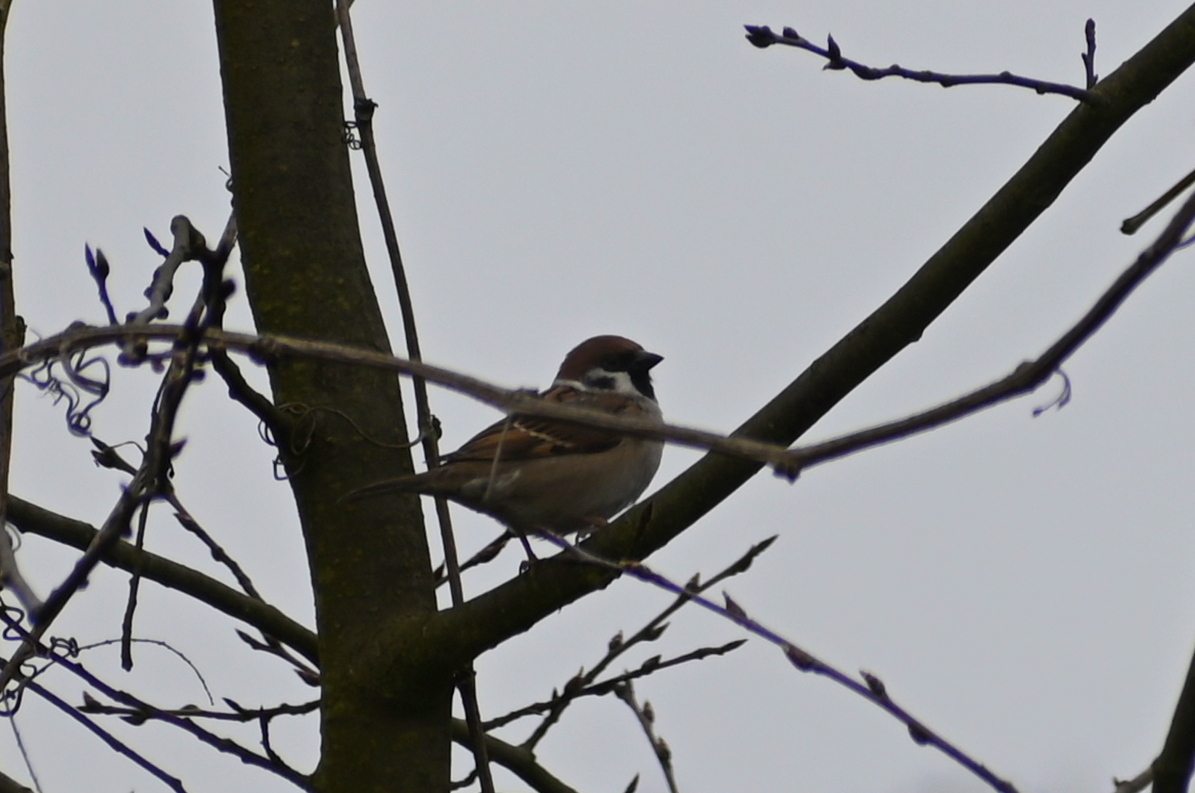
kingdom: Animalia
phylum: Chordata
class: Aves
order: Passeriformes
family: Passeridae
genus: Passer
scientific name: Passer montanus
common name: Eurasian tree sparrow
